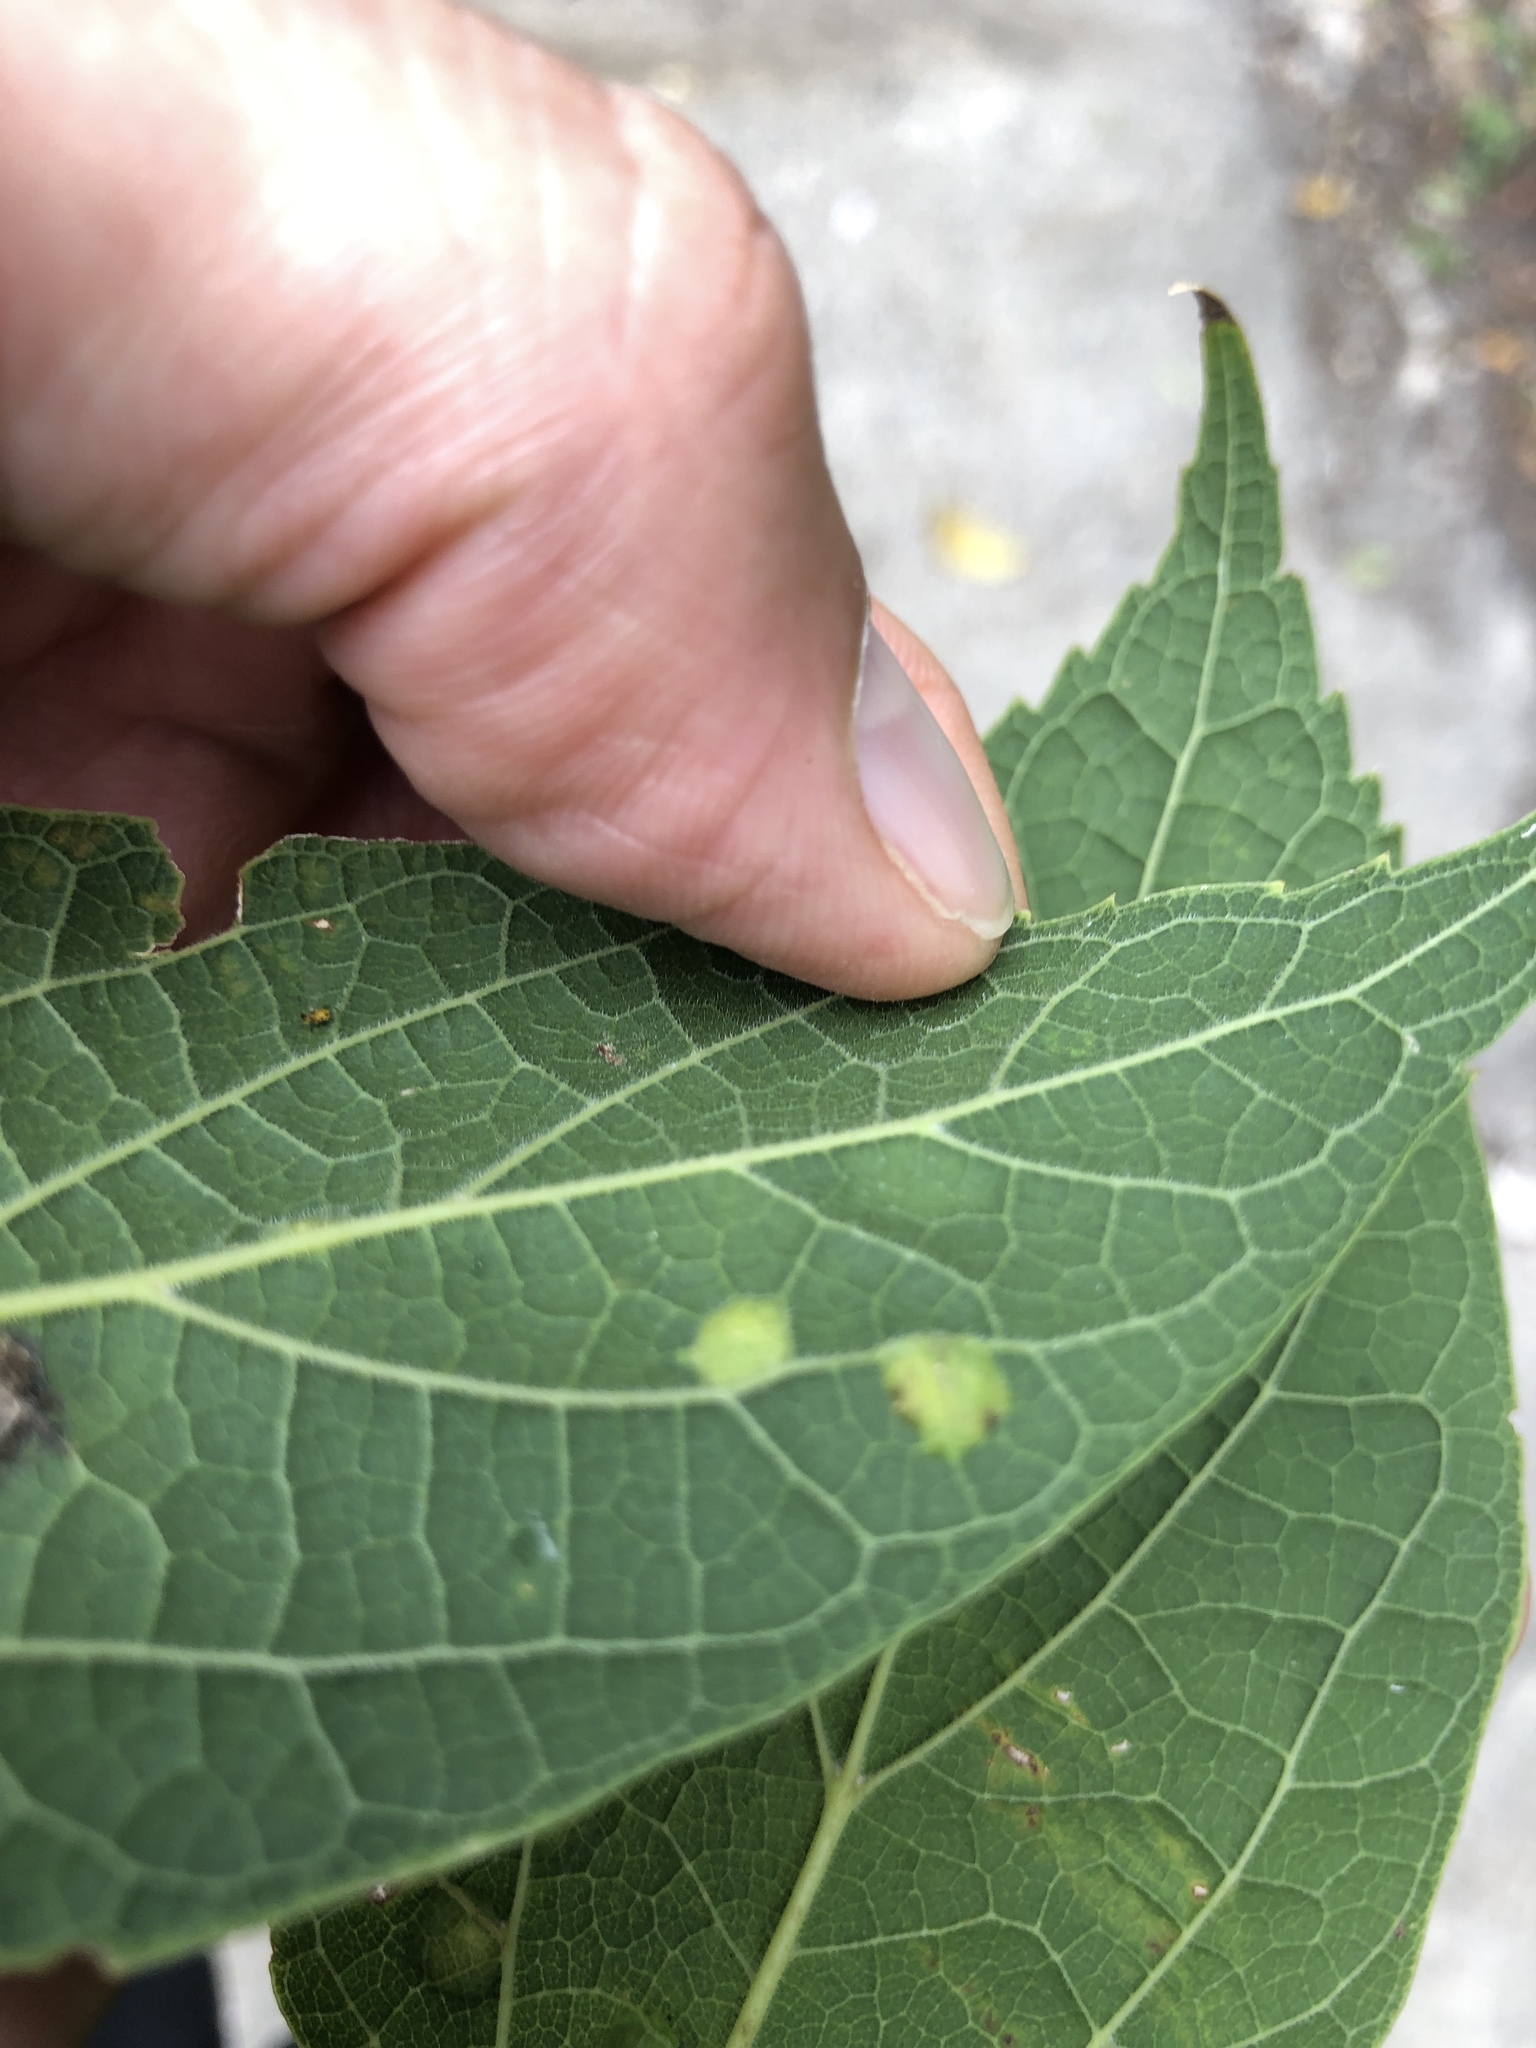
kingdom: Animalia
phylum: Arthropoda
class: Insecta
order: Hemiptera
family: Aphalaridae
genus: Pachypsylla
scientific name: Pachypsylla celtidisvesicula
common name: Hackberry blister gall psyllid
